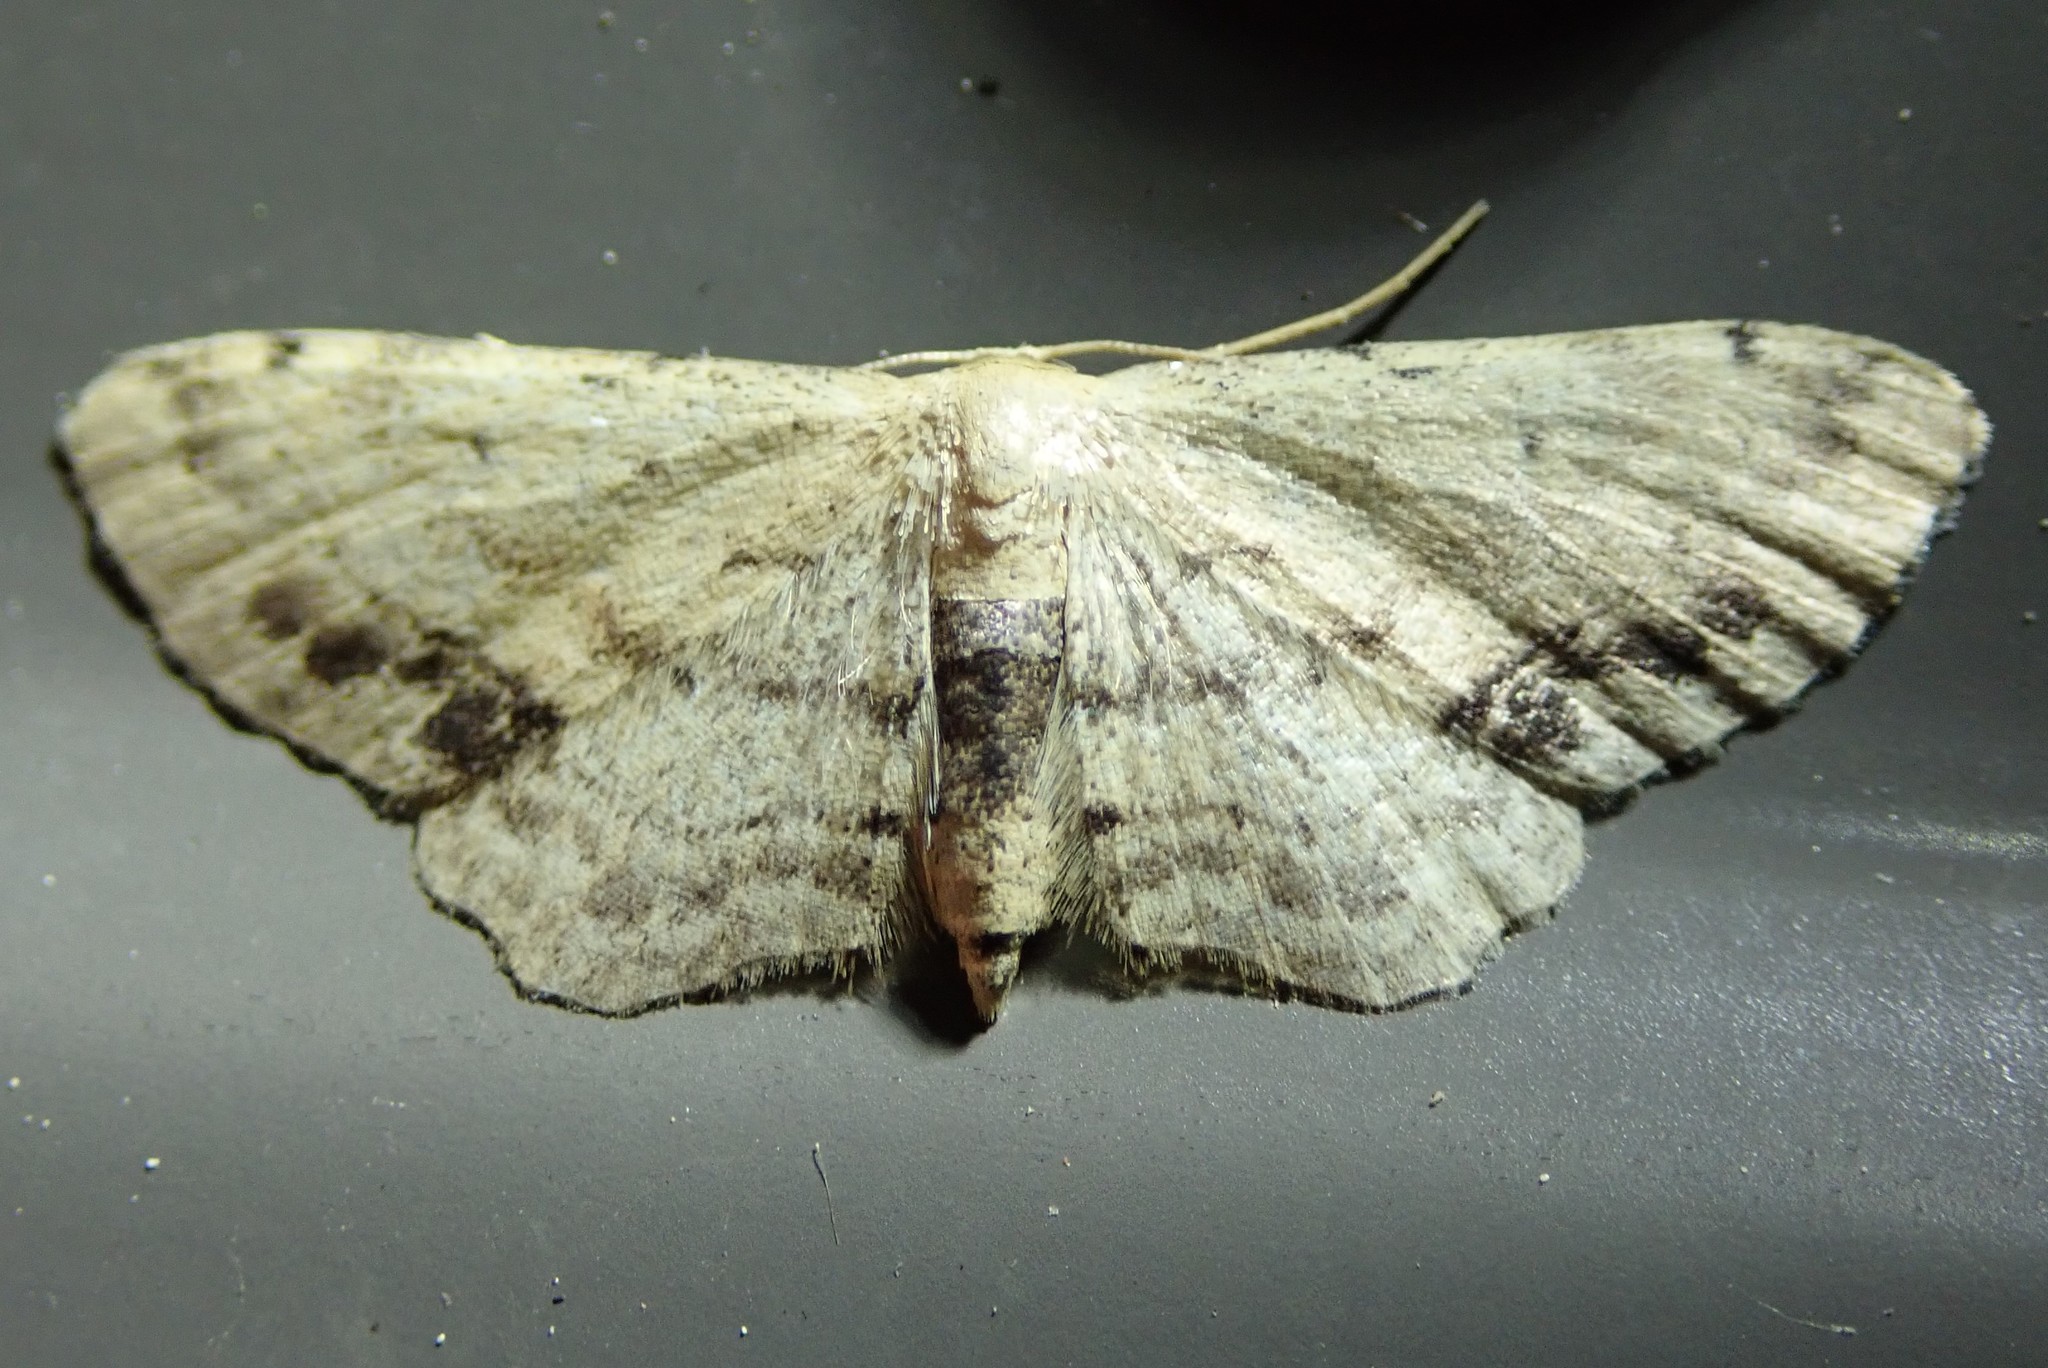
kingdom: Animalia
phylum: Arthropoda
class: Insecta
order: Lepidoptera
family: Geometridae
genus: Idaea
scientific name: Idaea dimidiata
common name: Single-dotted wave
